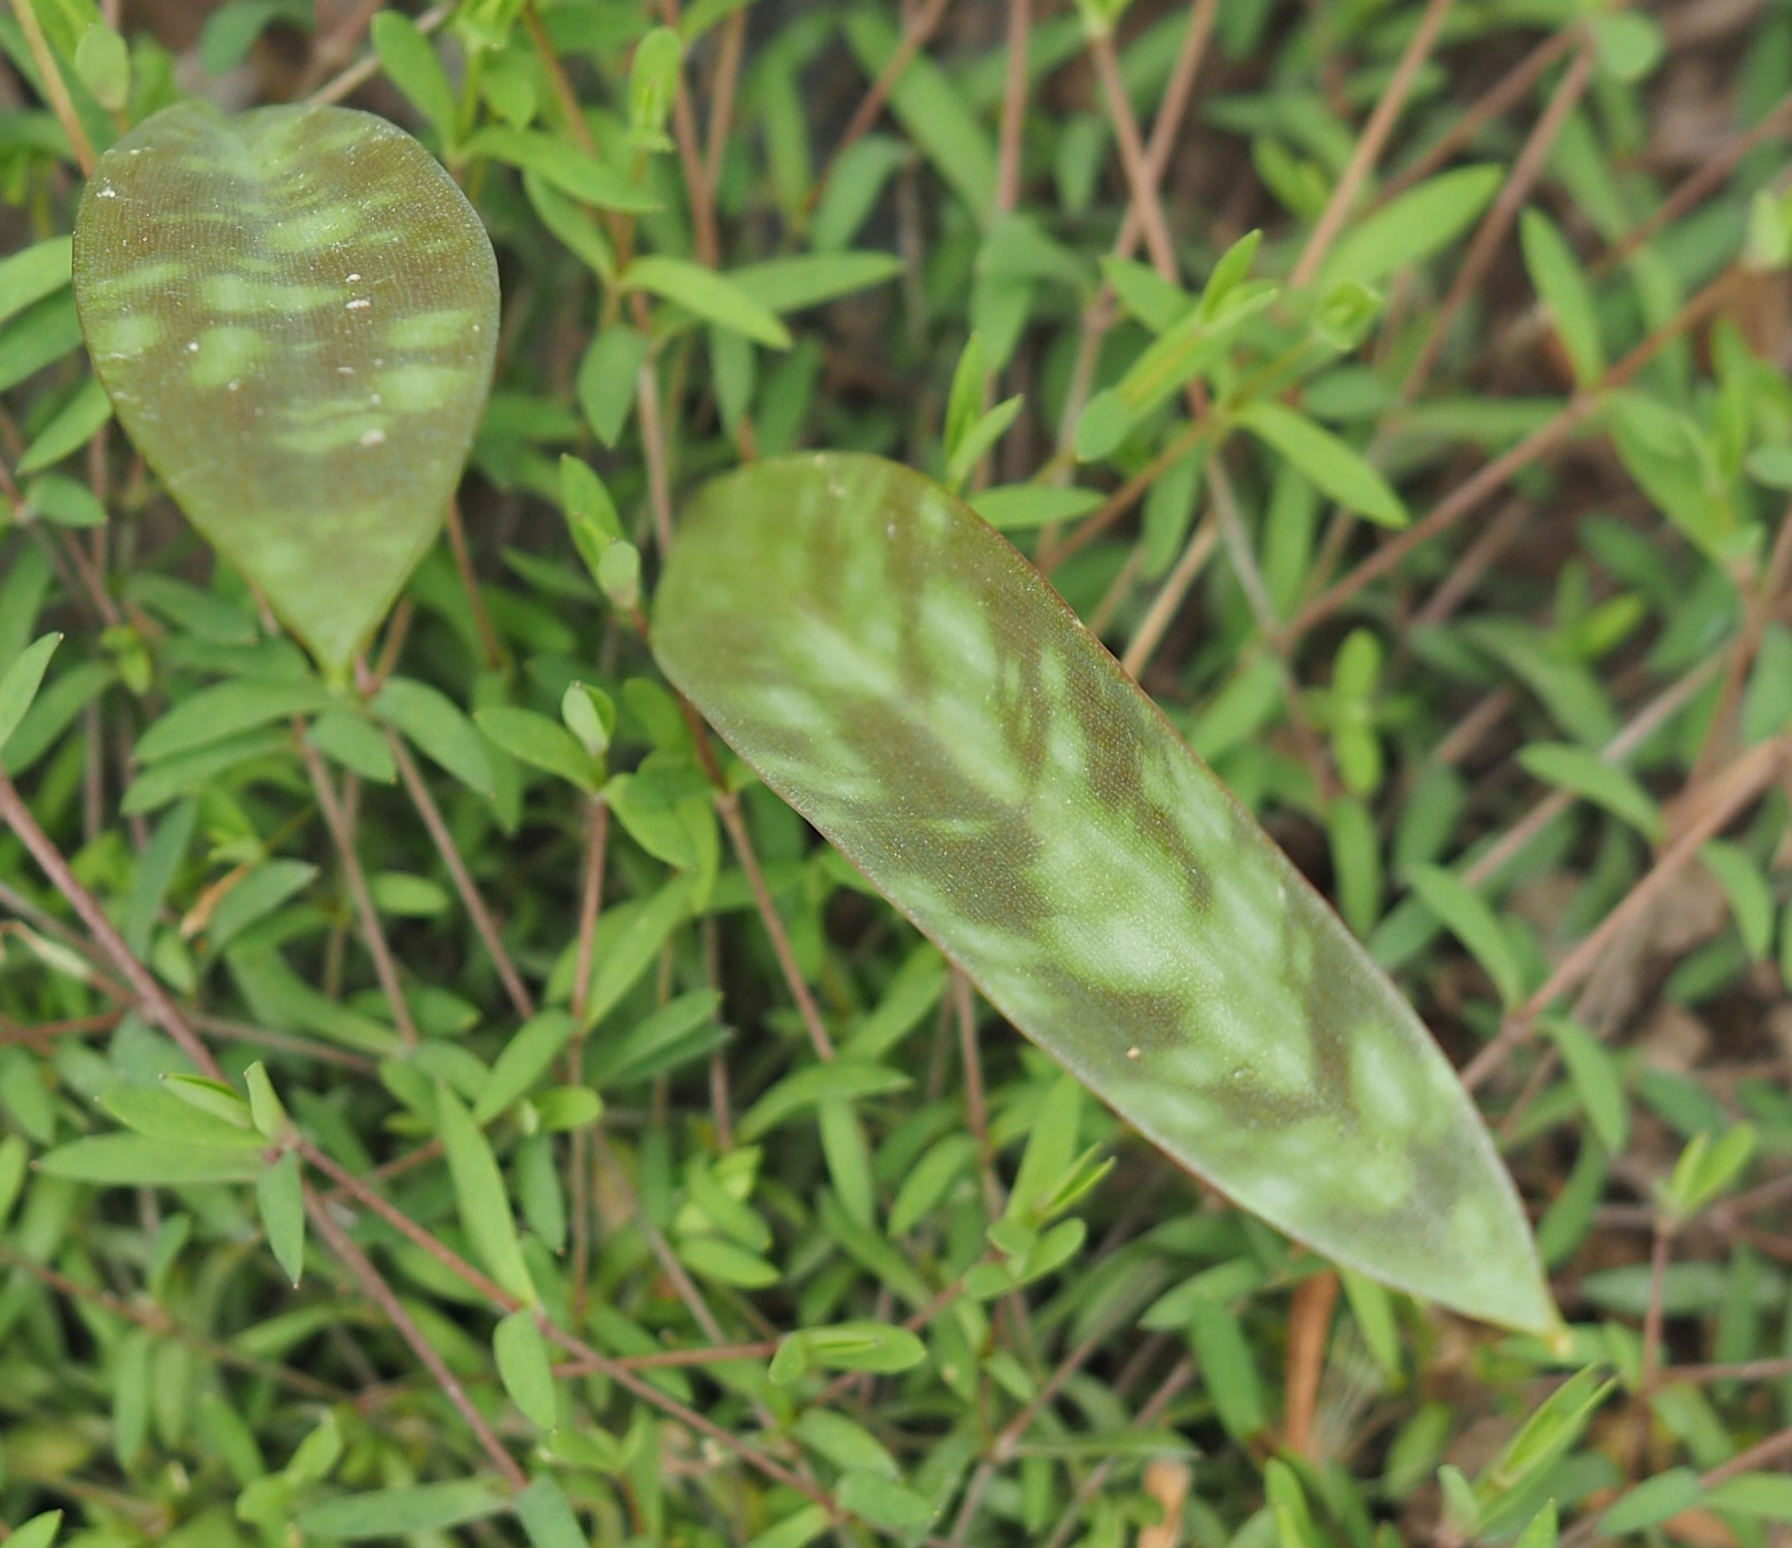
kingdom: Plantae
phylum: Tracheophyta
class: Liliopsida
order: Liliales
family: Liliaceae
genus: Erythronium
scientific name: Erythronium americanum
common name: Yellow adder's-tongue
